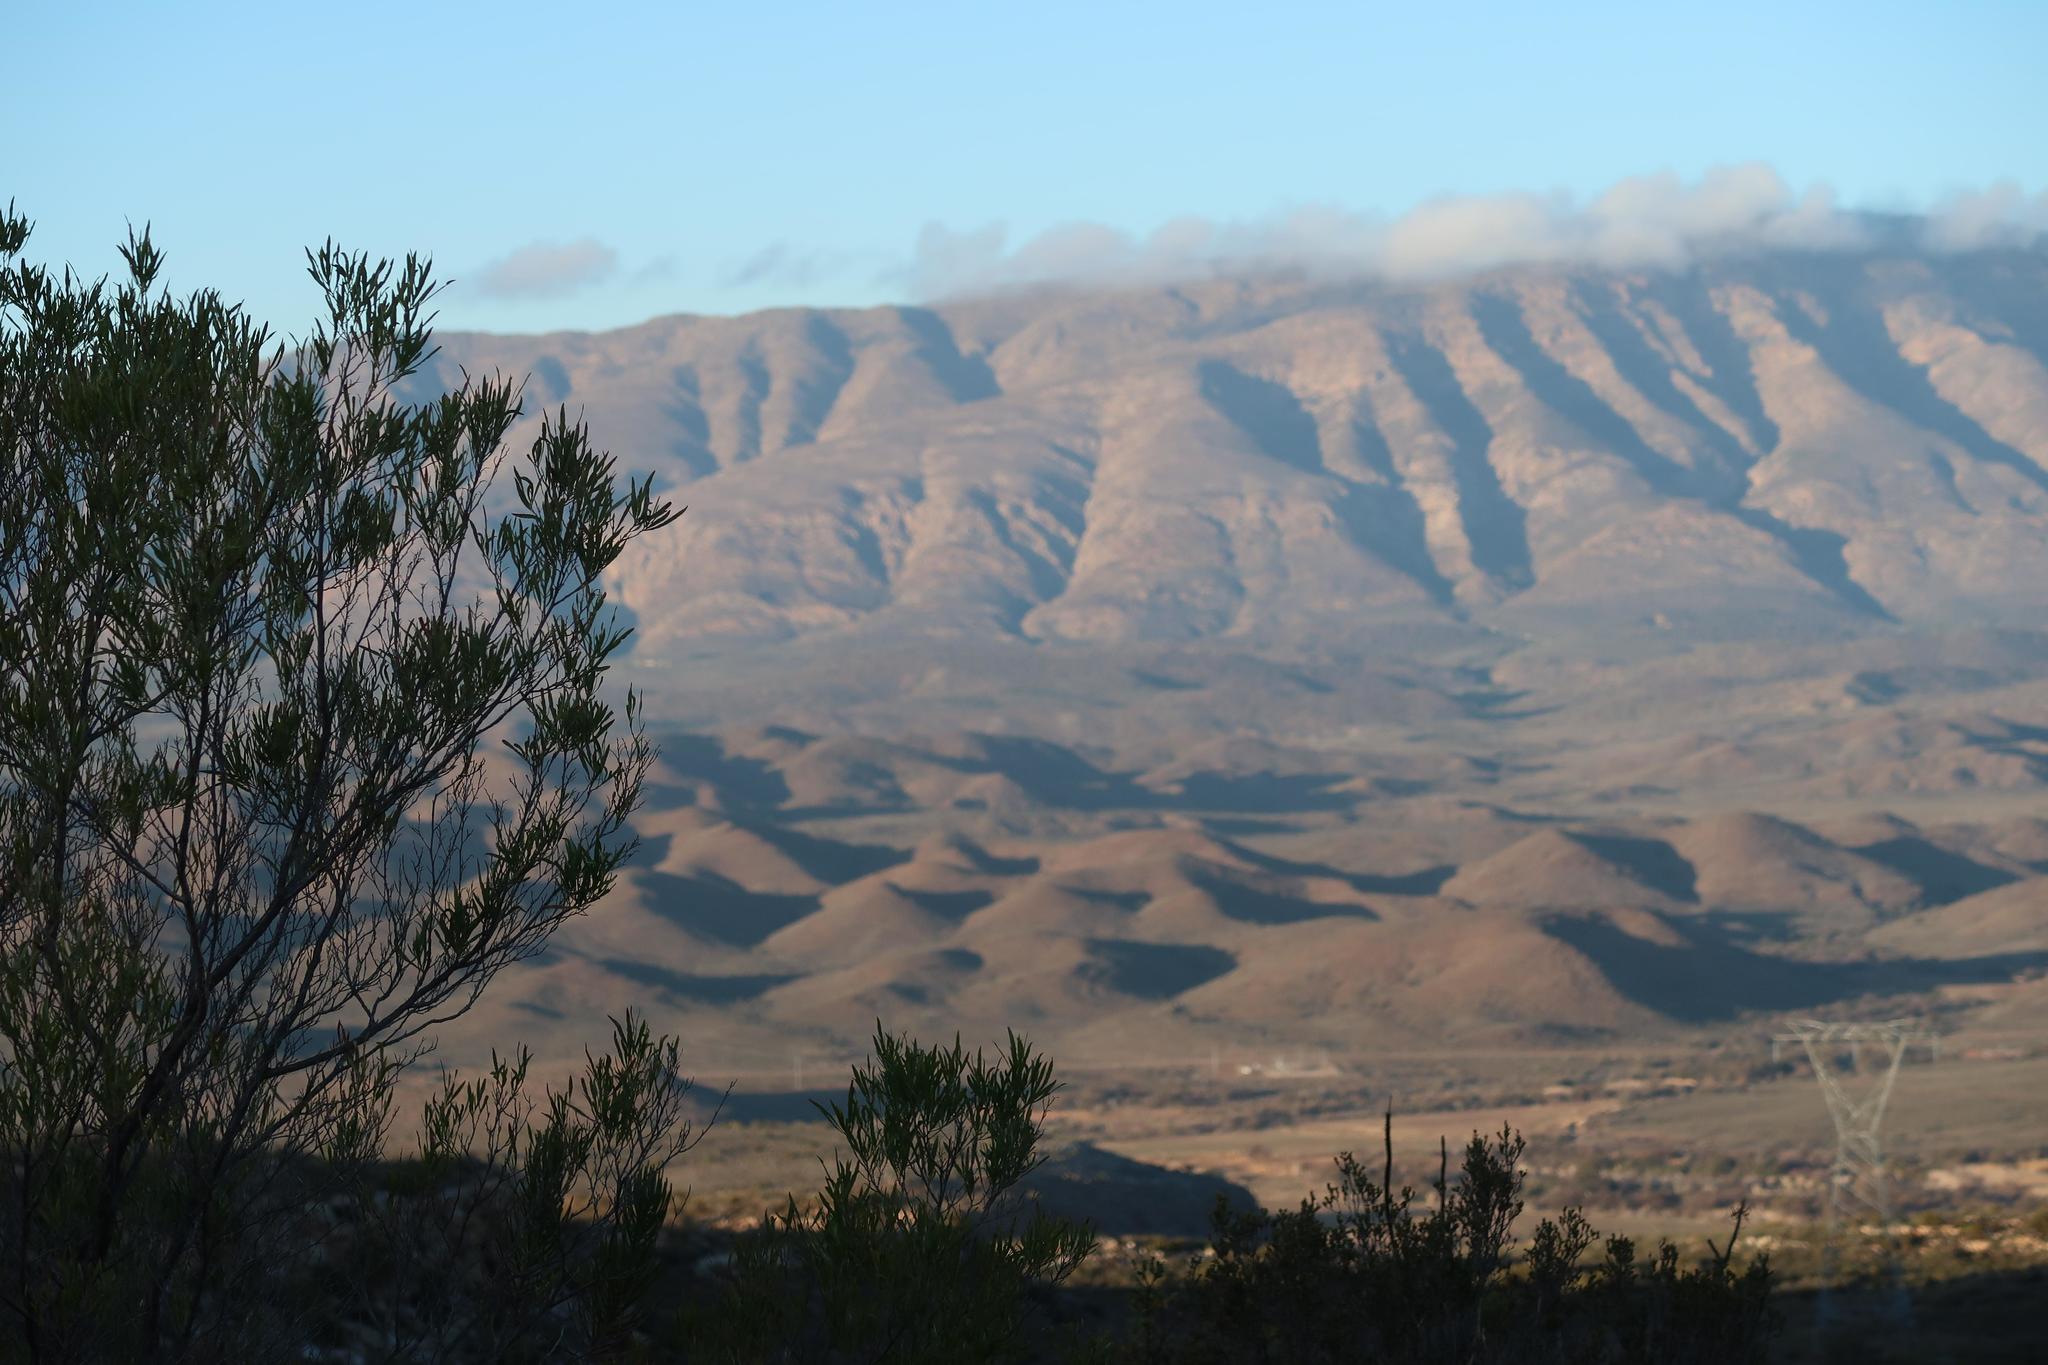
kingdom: Plantae
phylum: Tracheophyta
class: Magnoliopsida
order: Sapindales
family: Sapindaceae
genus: Dodonaea
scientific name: Dodonaea viscosa
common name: Hopbush
